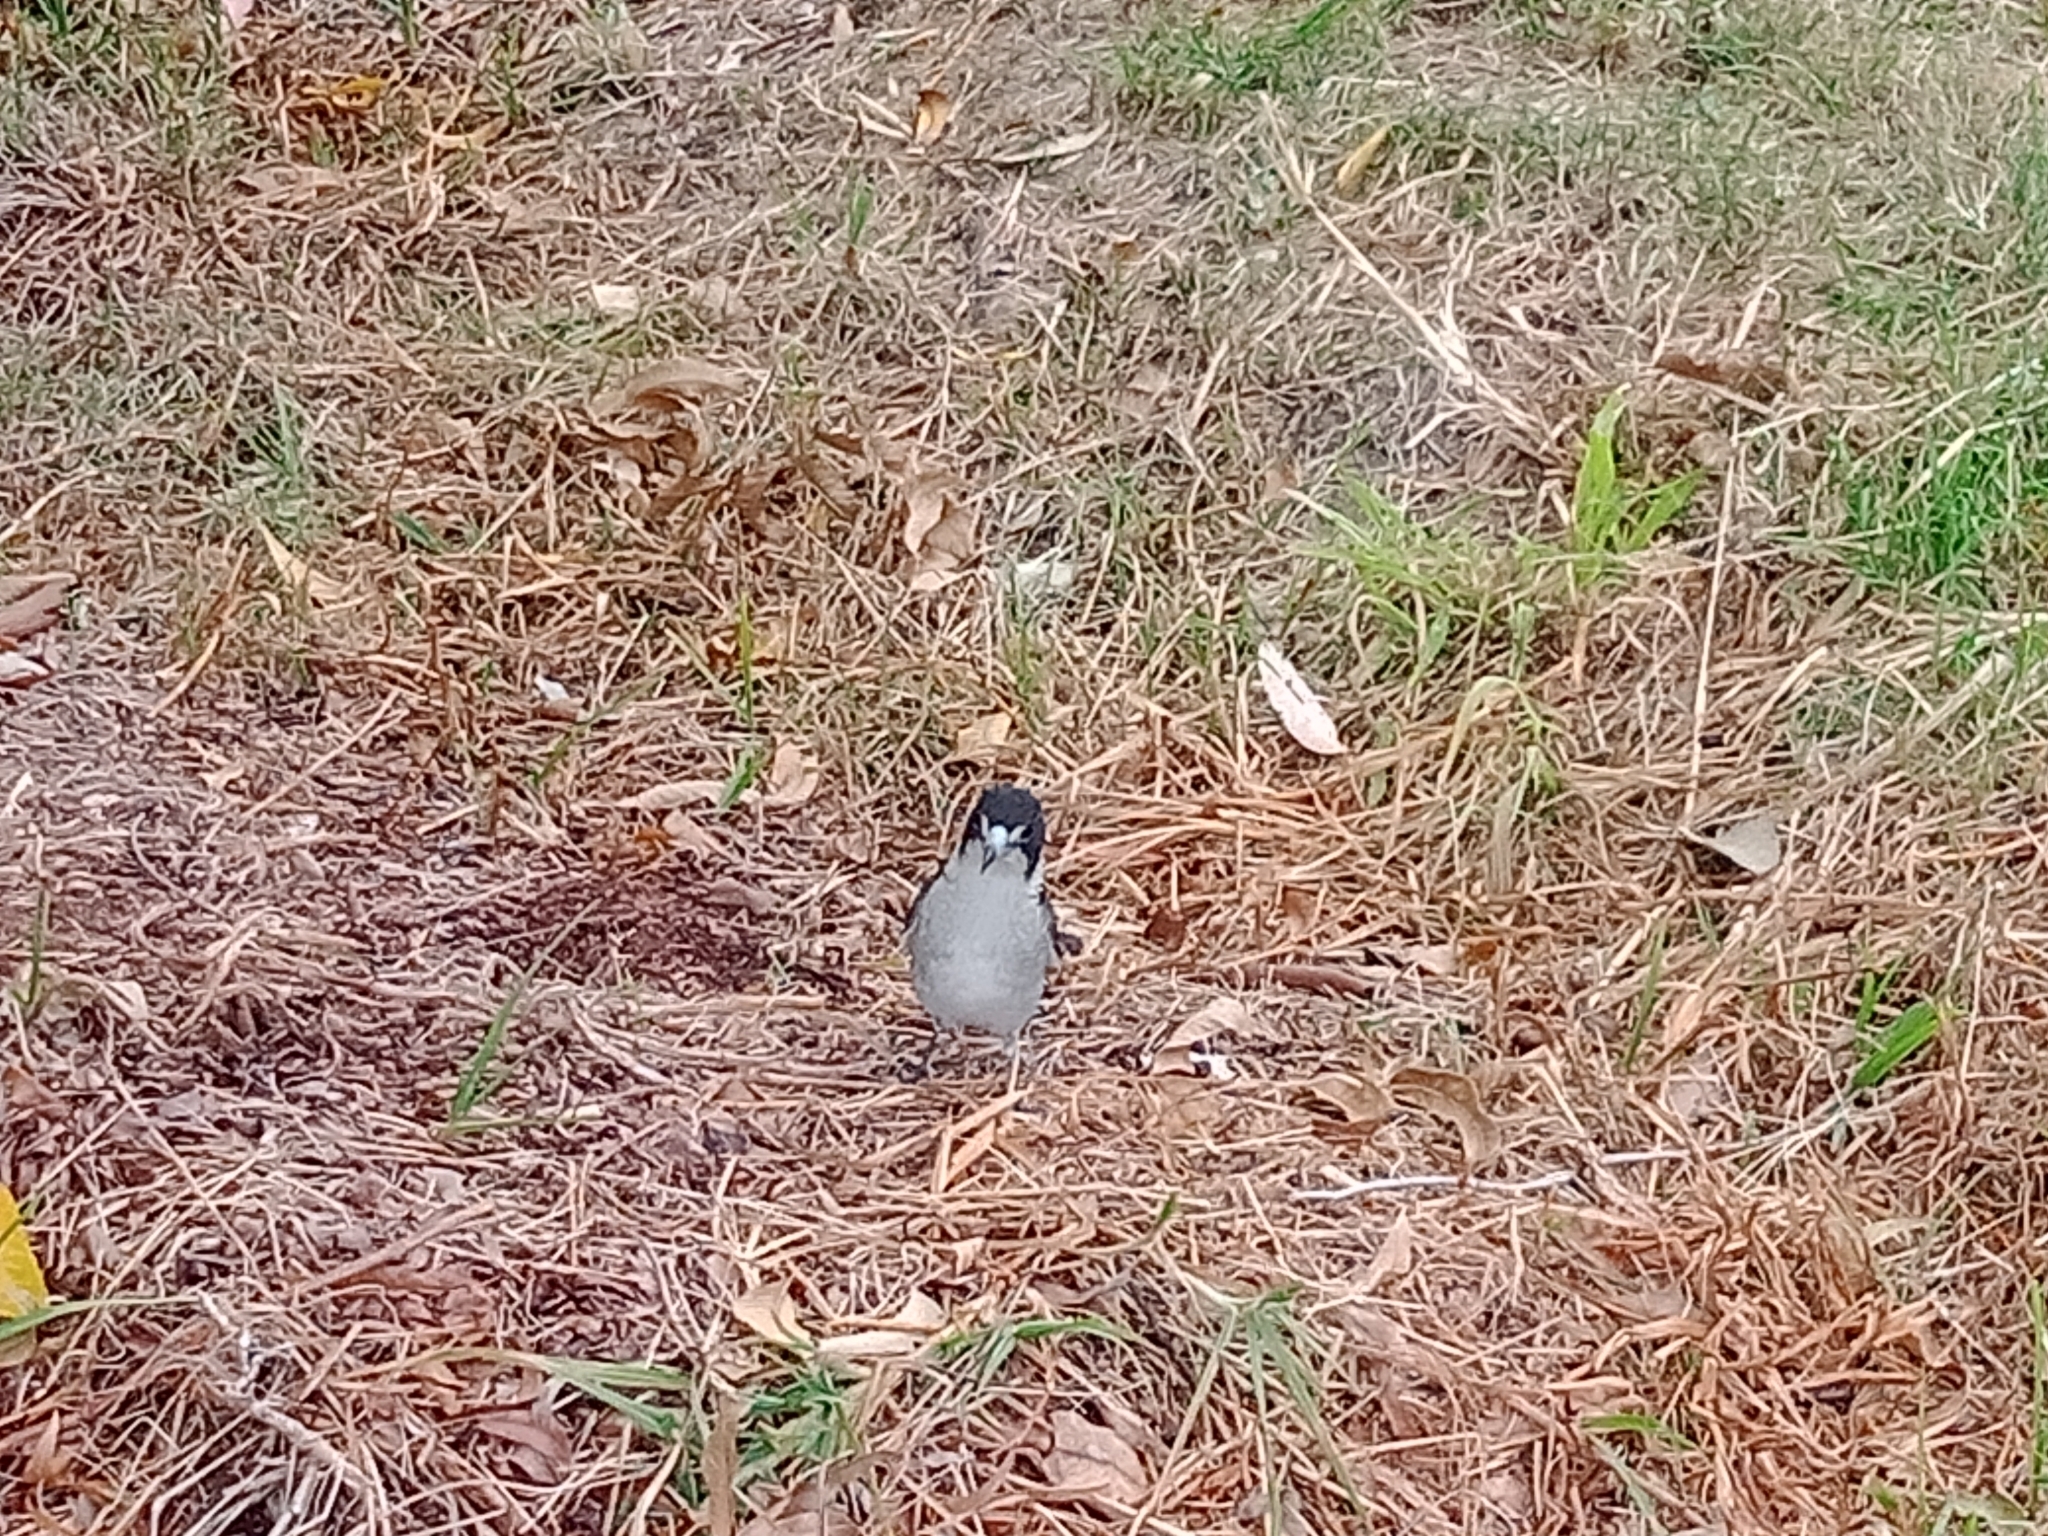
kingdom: Animalia
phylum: Chordata
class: Aves
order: Passeriformes
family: Cracticidae
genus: Cracticus
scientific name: Cracticus torquatus
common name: Grey butcherbird
